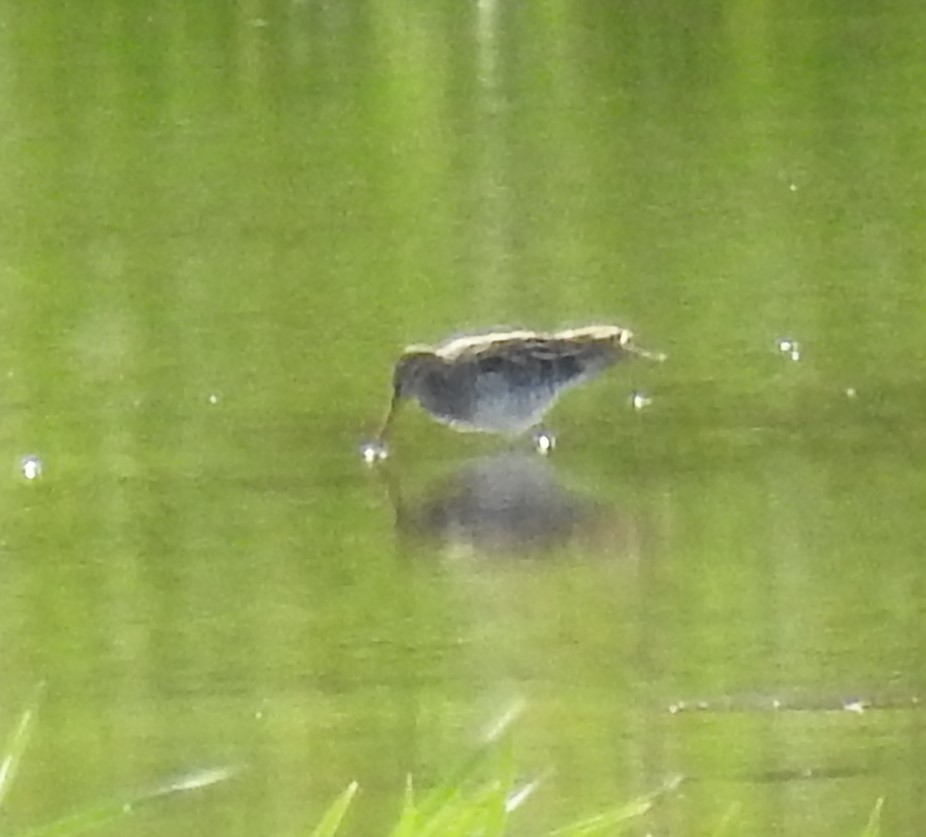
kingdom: Animalia
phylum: Chordata
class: Aves
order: Charadriiformes
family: Scolopacidae
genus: Gallinago
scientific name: Gallinago delicata
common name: Wilson's snipe
